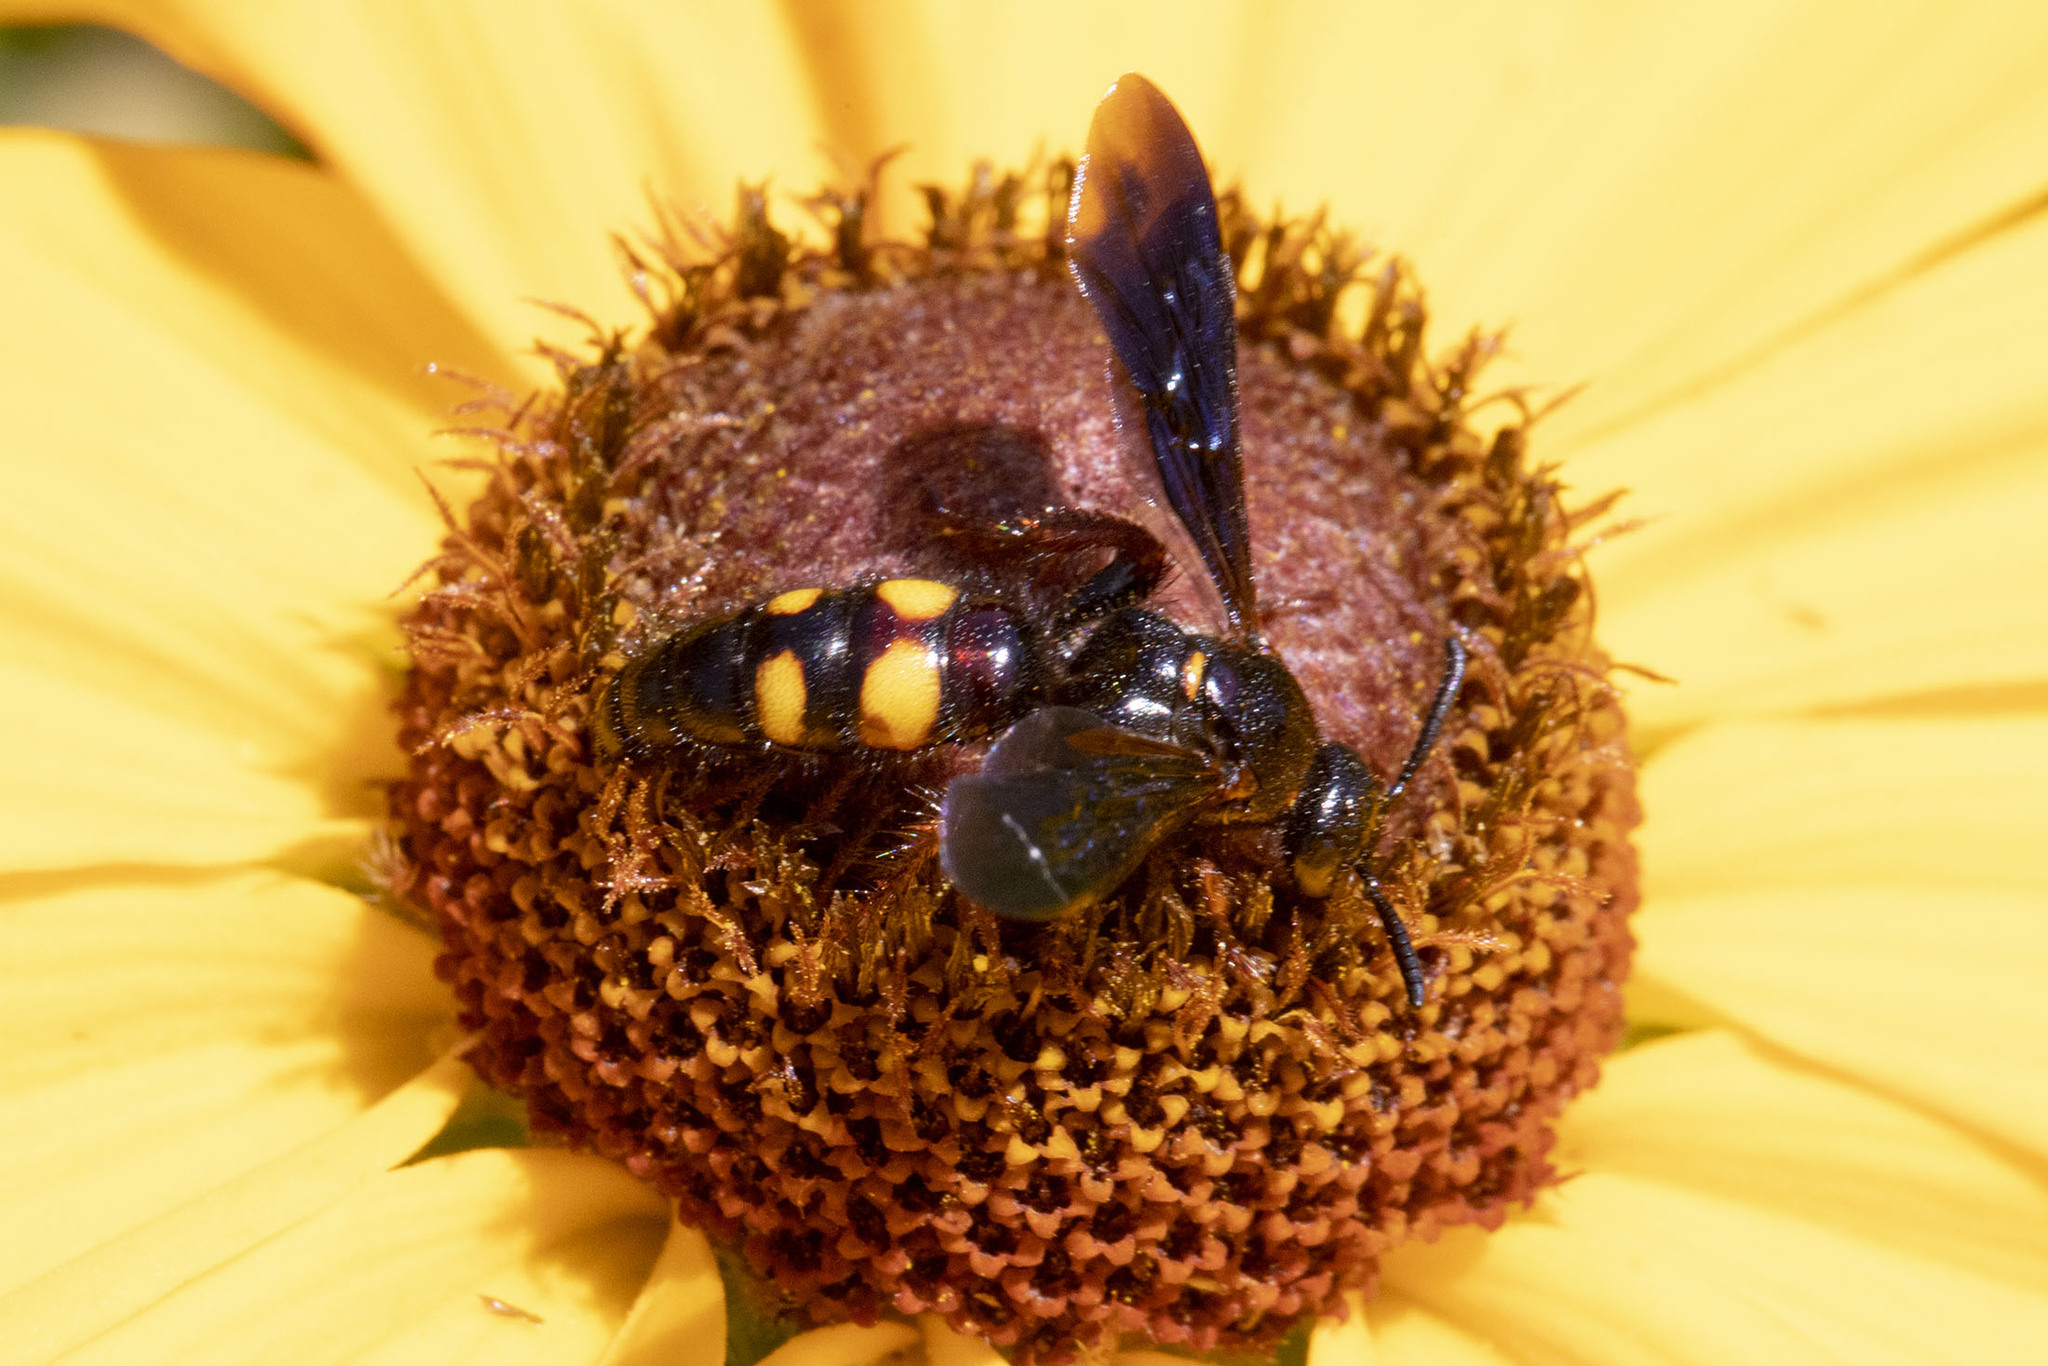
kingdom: Animalia
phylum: Arthropoda
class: Insecta
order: Hymenoptera
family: Scoliidae
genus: Scolia
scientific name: Scolia nobilitata
